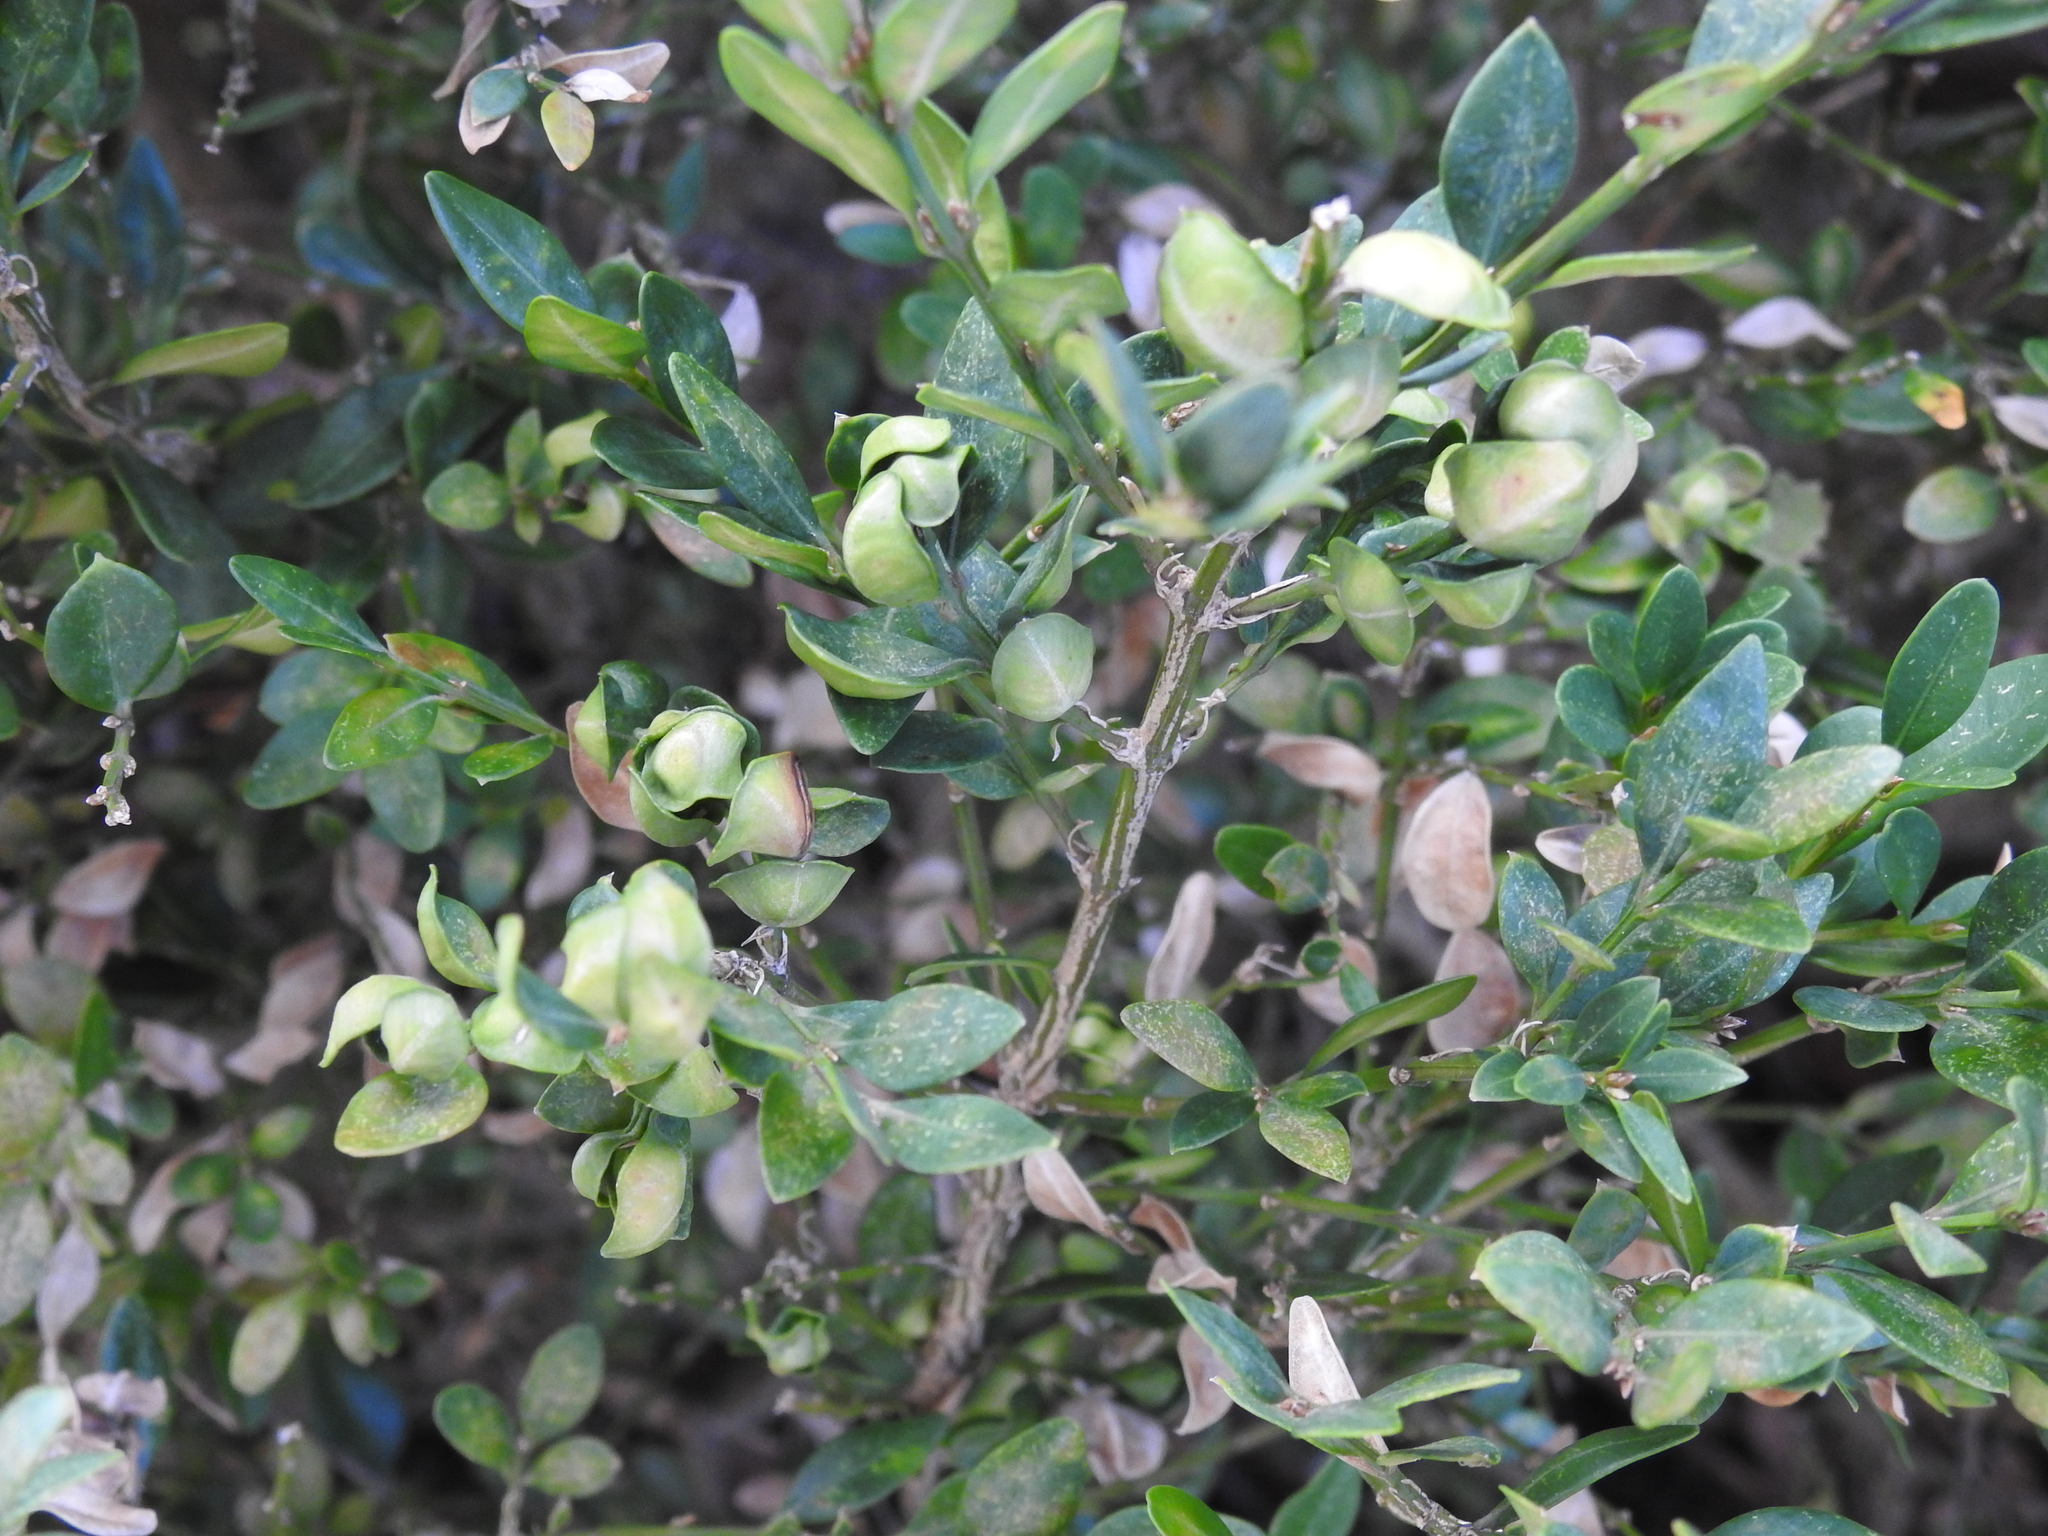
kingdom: Animalia
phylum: Arthropoda
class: Insecta
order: Hemiptera
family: Psyllidae
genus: Psylla
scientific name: Psylla buxi
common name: Boxwood psyllid
